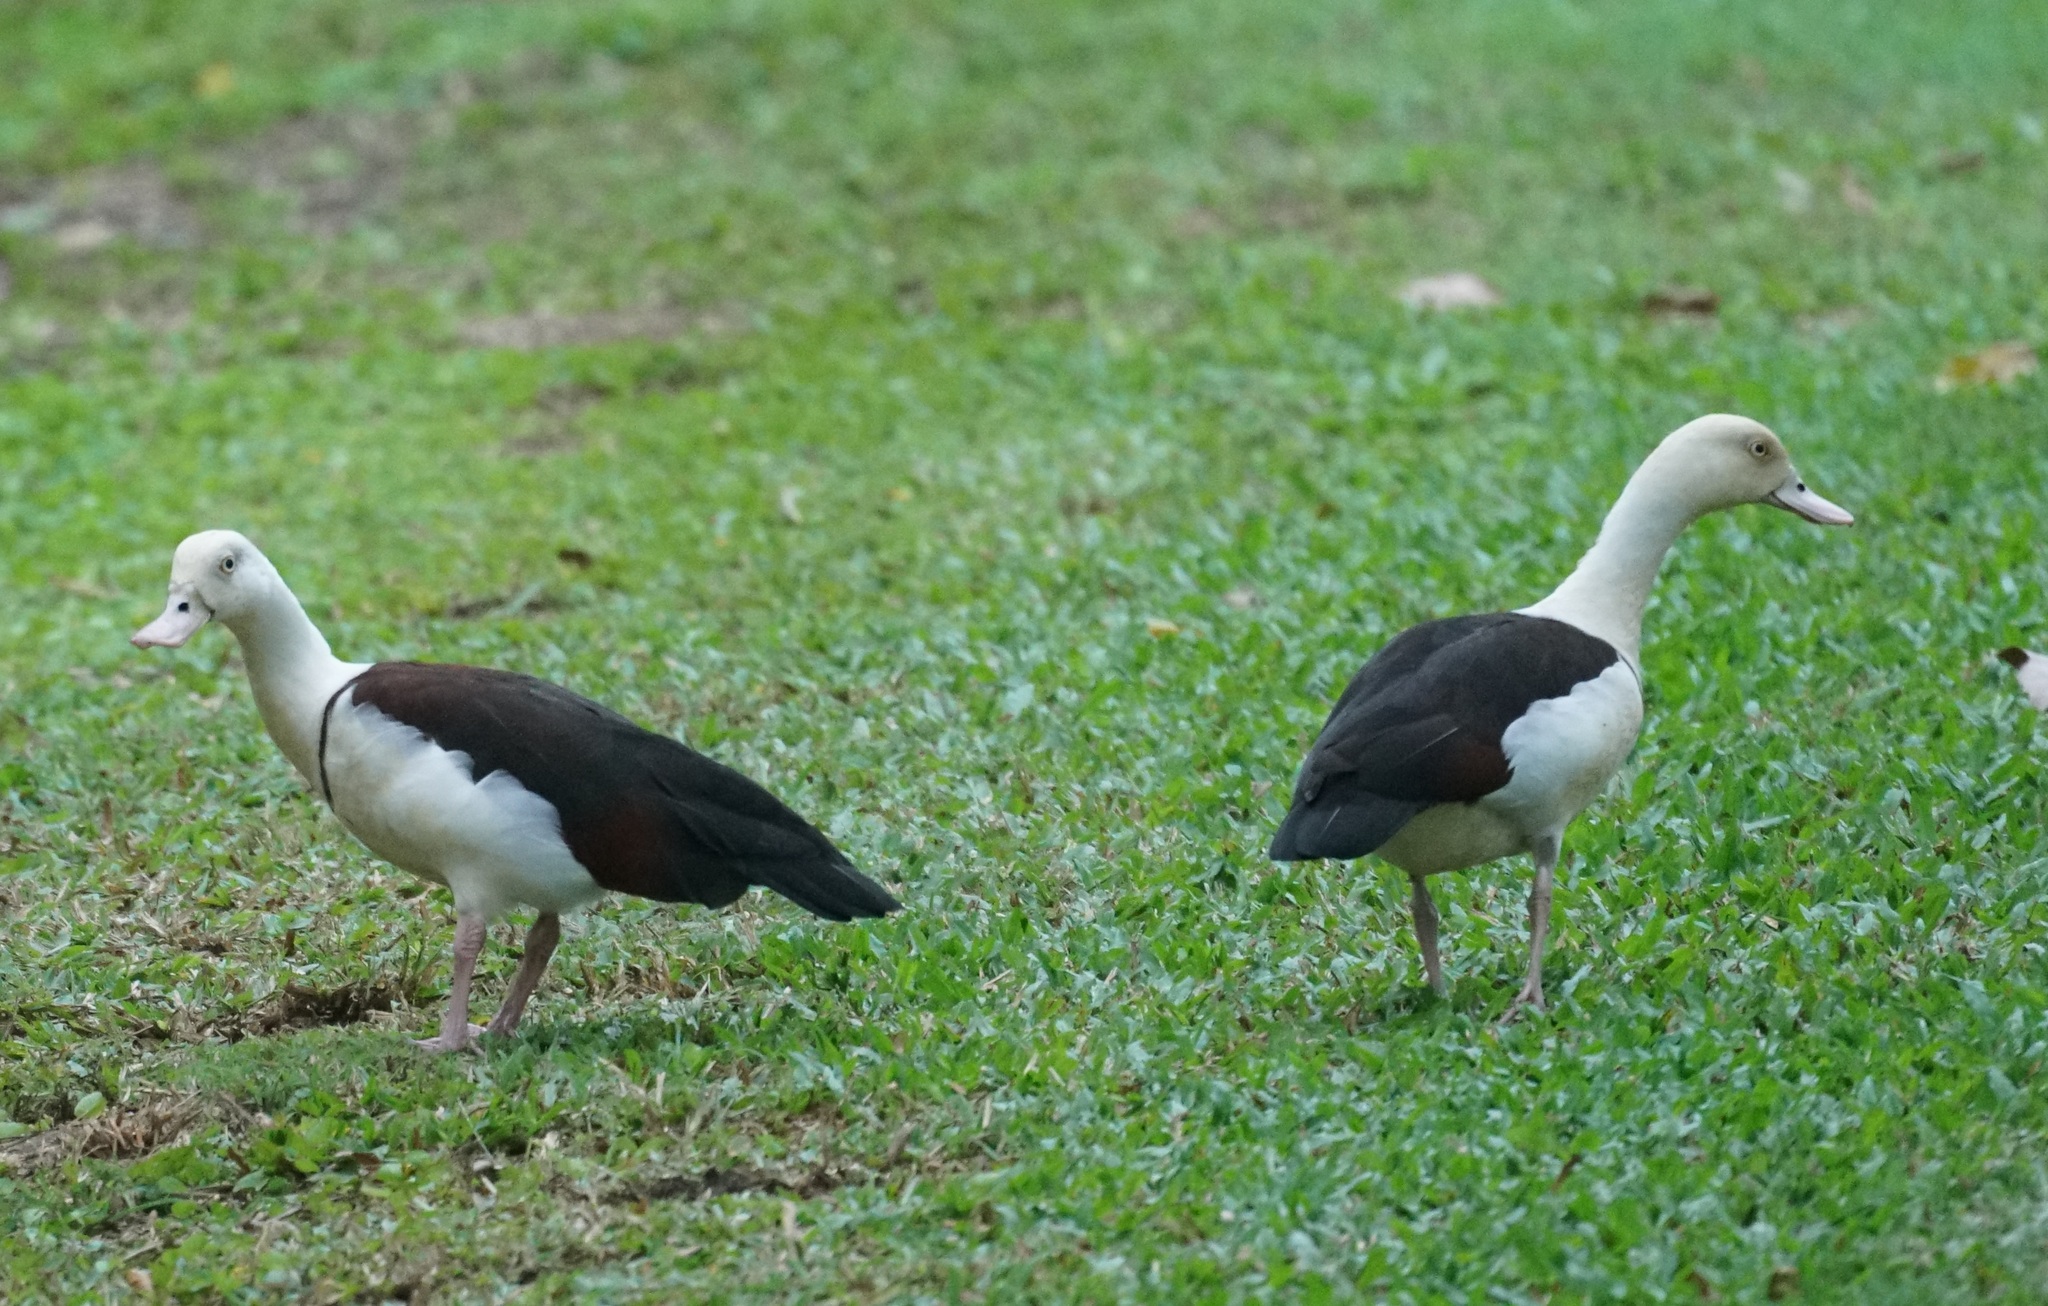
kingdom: Animalia
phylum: Chordata
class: Aves
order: Anseriformes
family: Anatidae
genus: Radjah
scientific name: Radjah radjah
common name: Radjah shelduck
